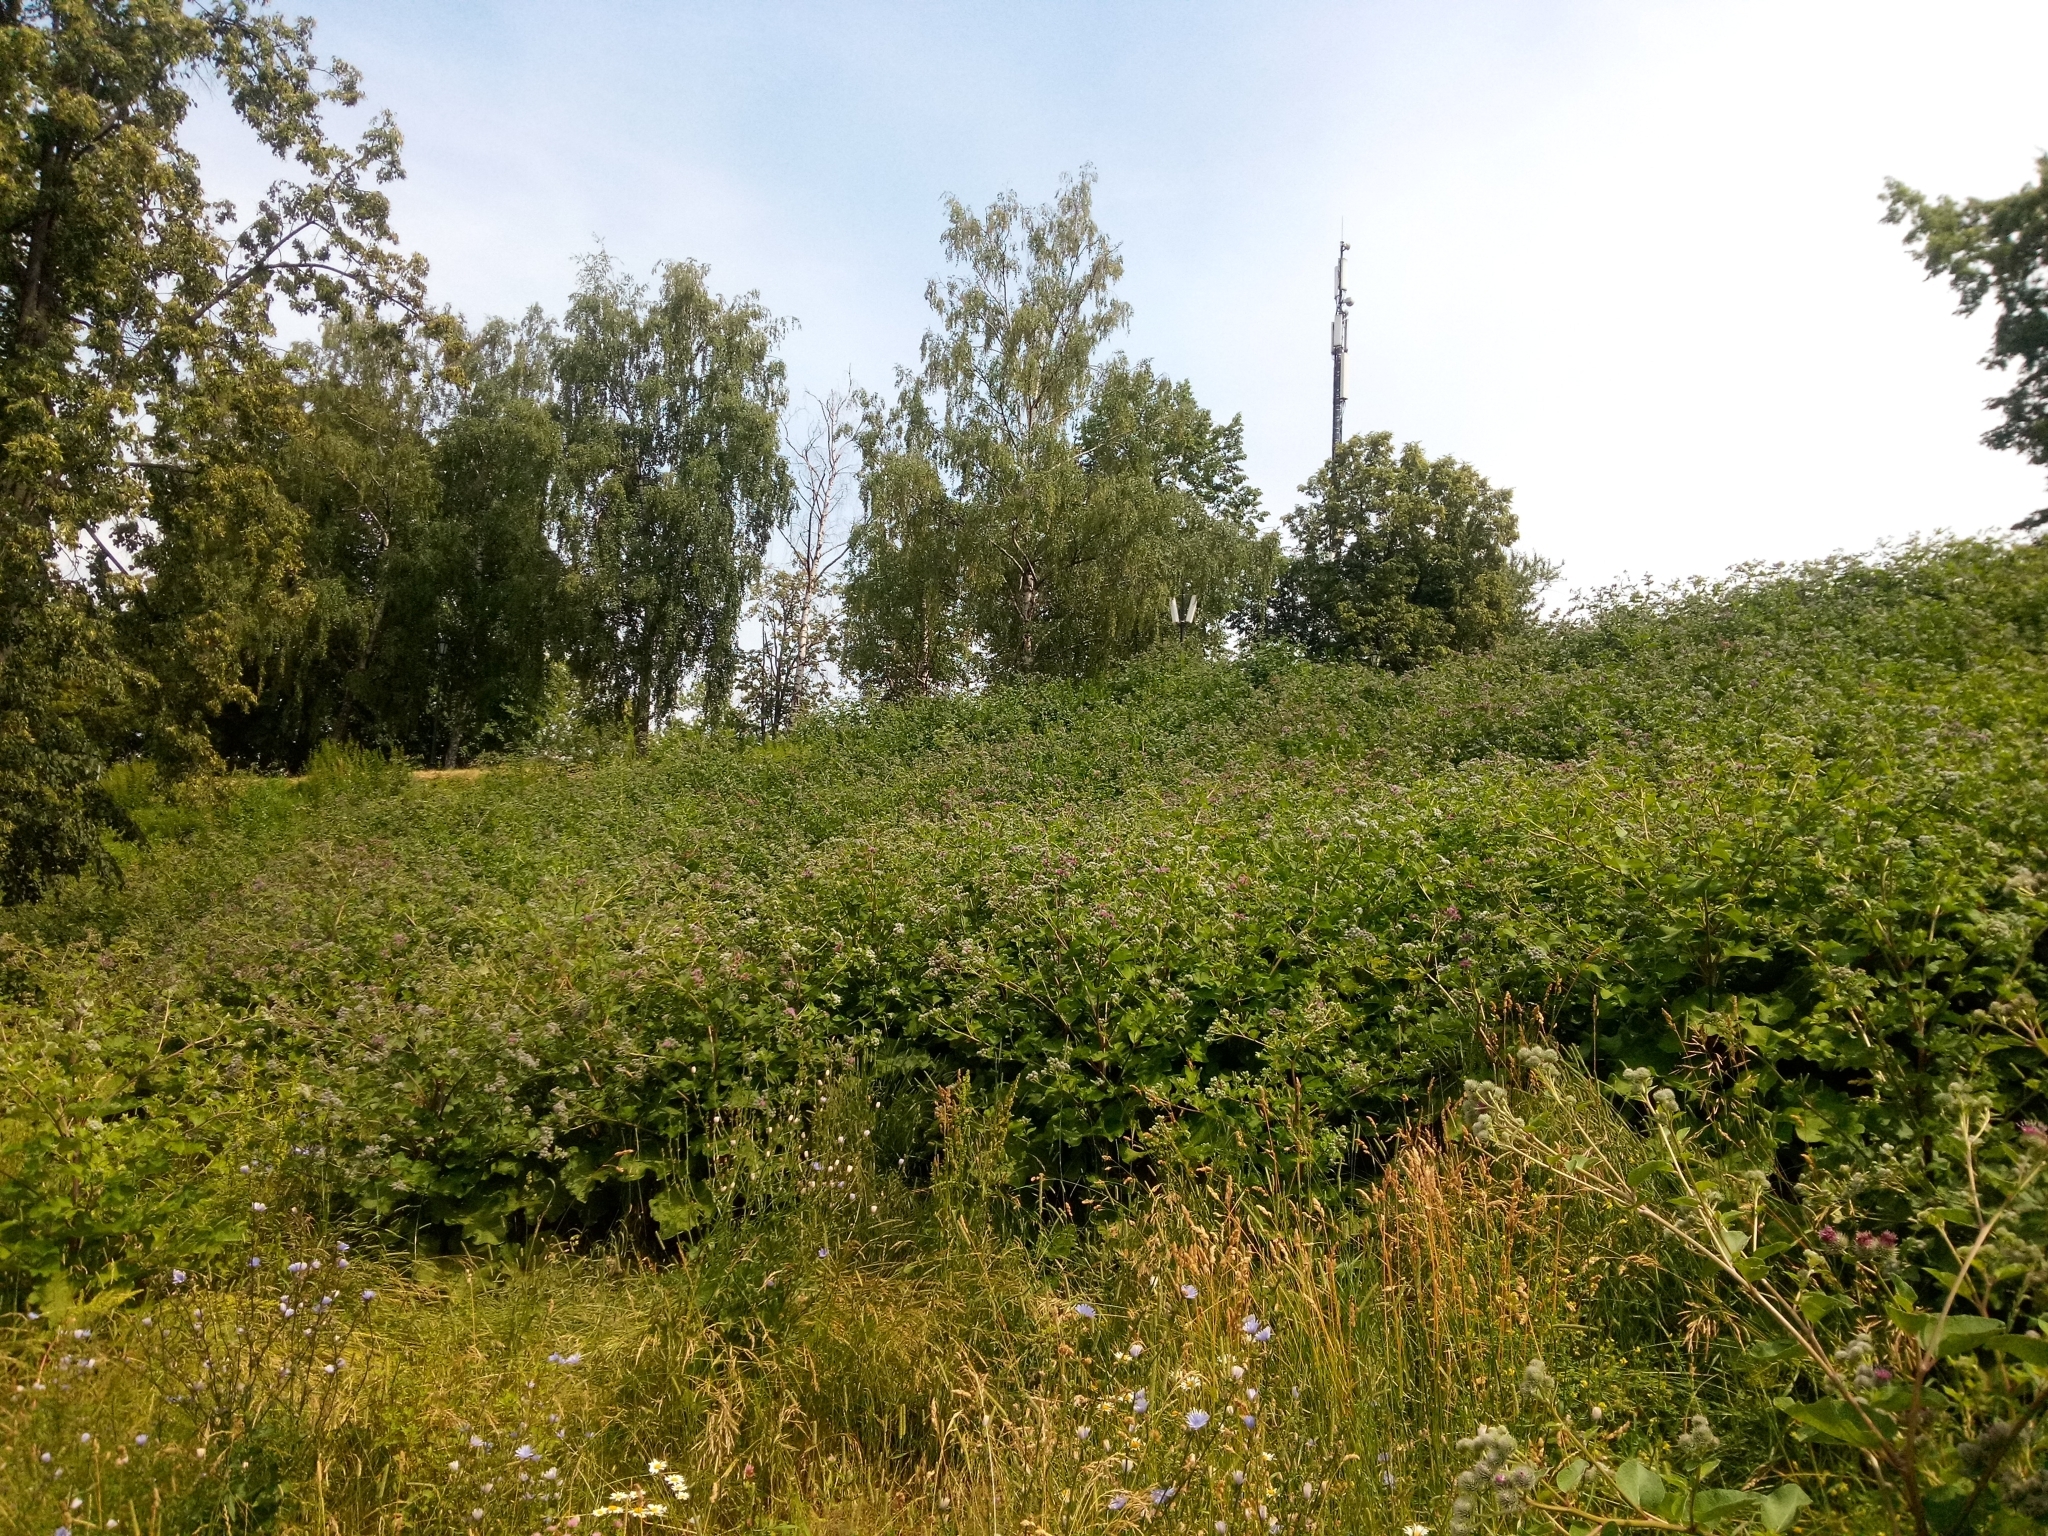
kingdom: Plantae
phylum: Tracheophyta
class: Magnoliopsida
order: Asterales
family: Asteraceae
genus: Arctium
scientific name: Arctium tomentosum
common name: Woolly burdock
